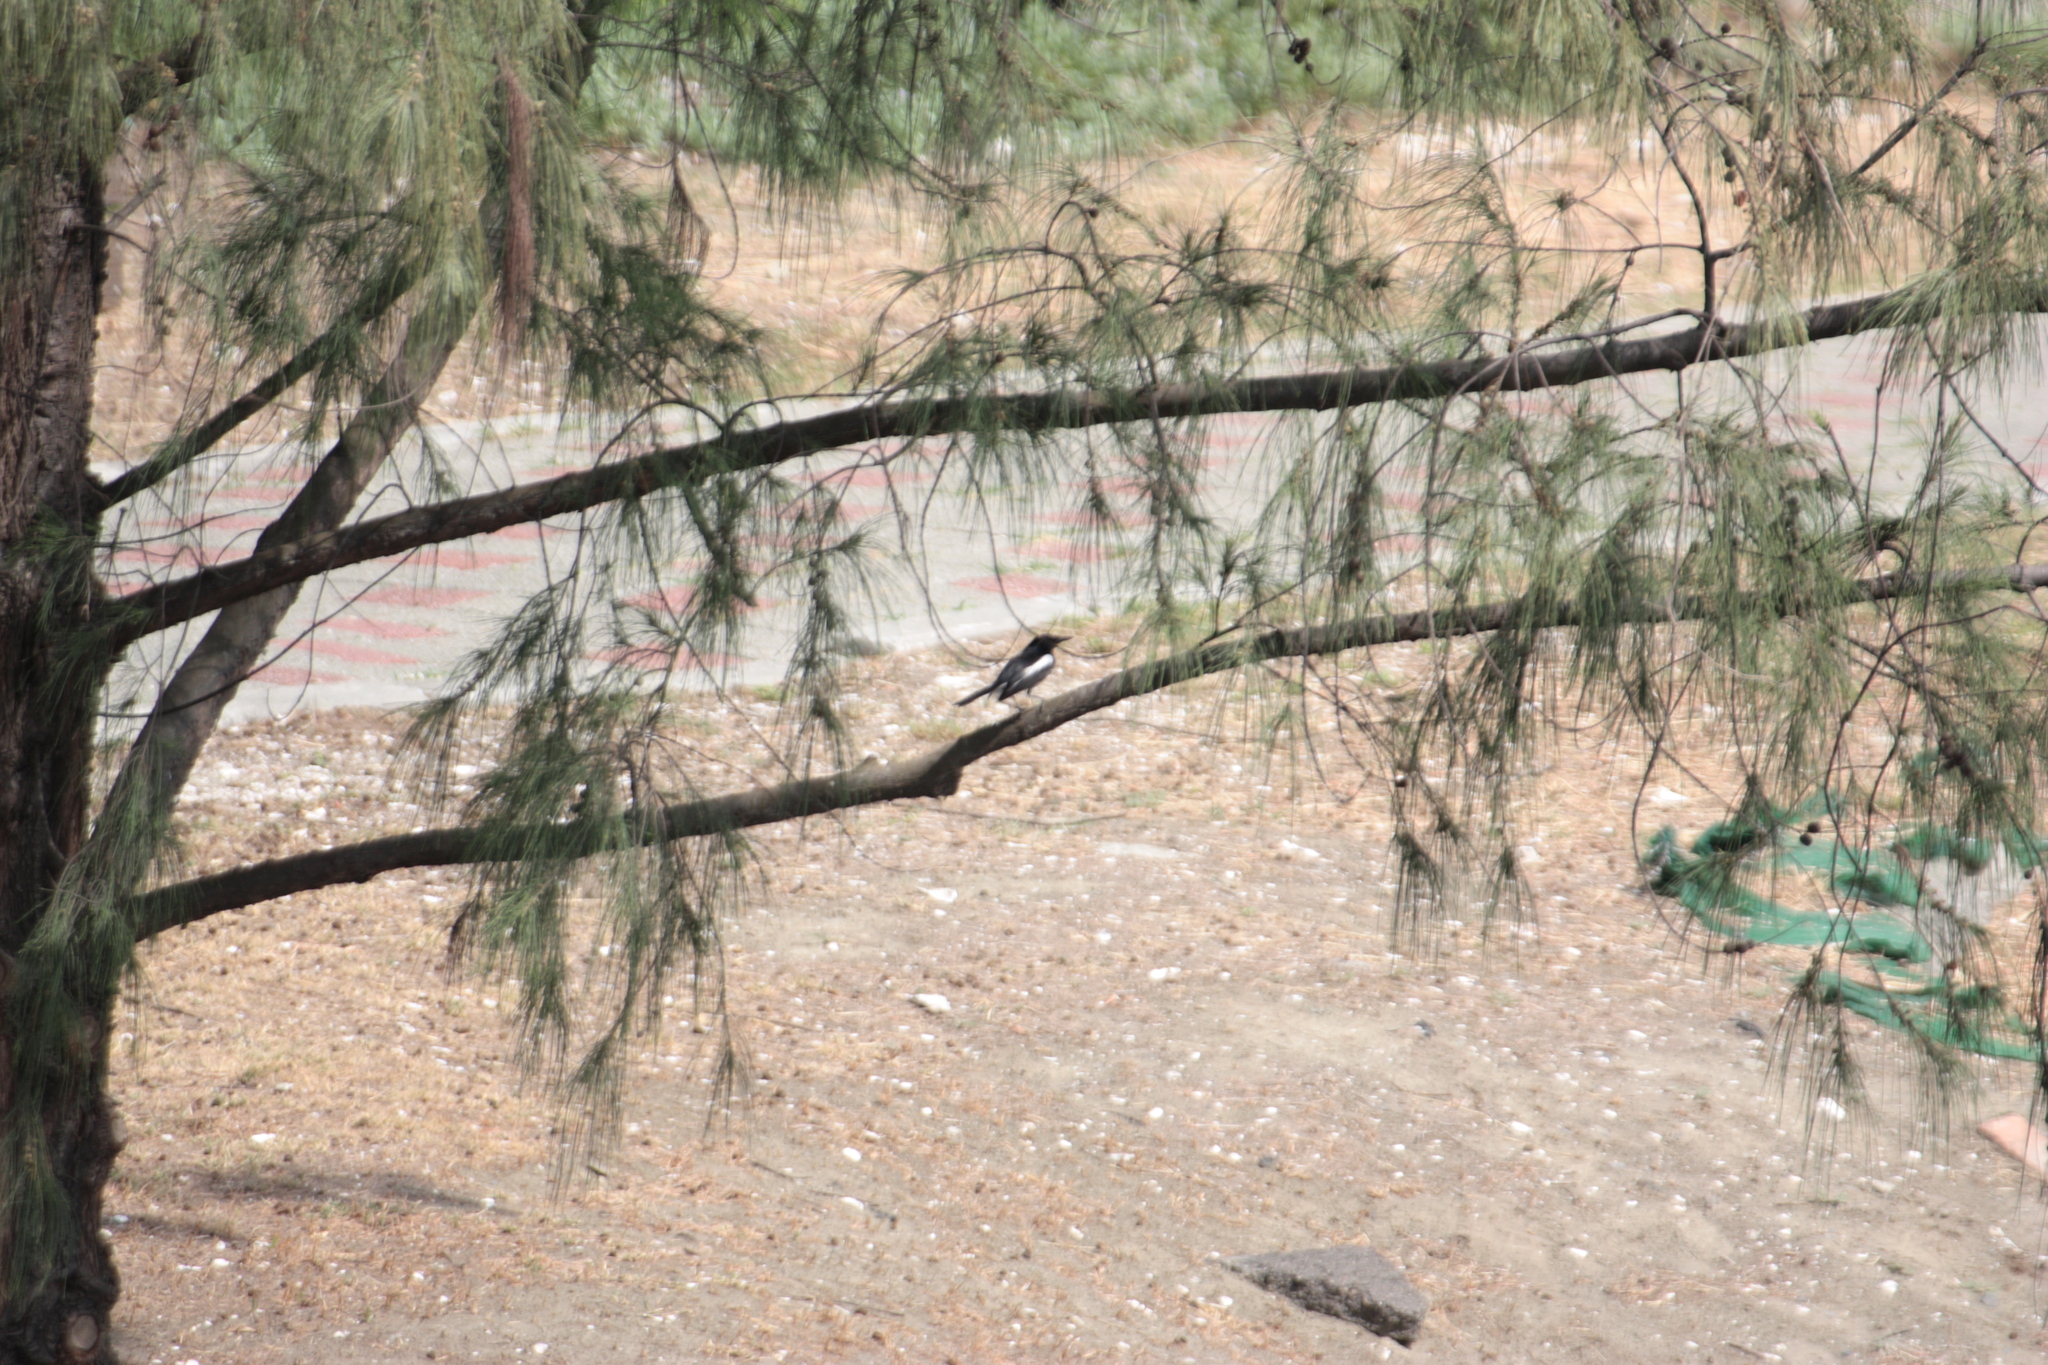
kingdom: Animalia
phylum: Chordata
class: Aves
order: Passeriformes
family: Muscicapidae
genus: Copsychus
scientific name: Copsychus saularis
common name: Oriental magpie-robin
